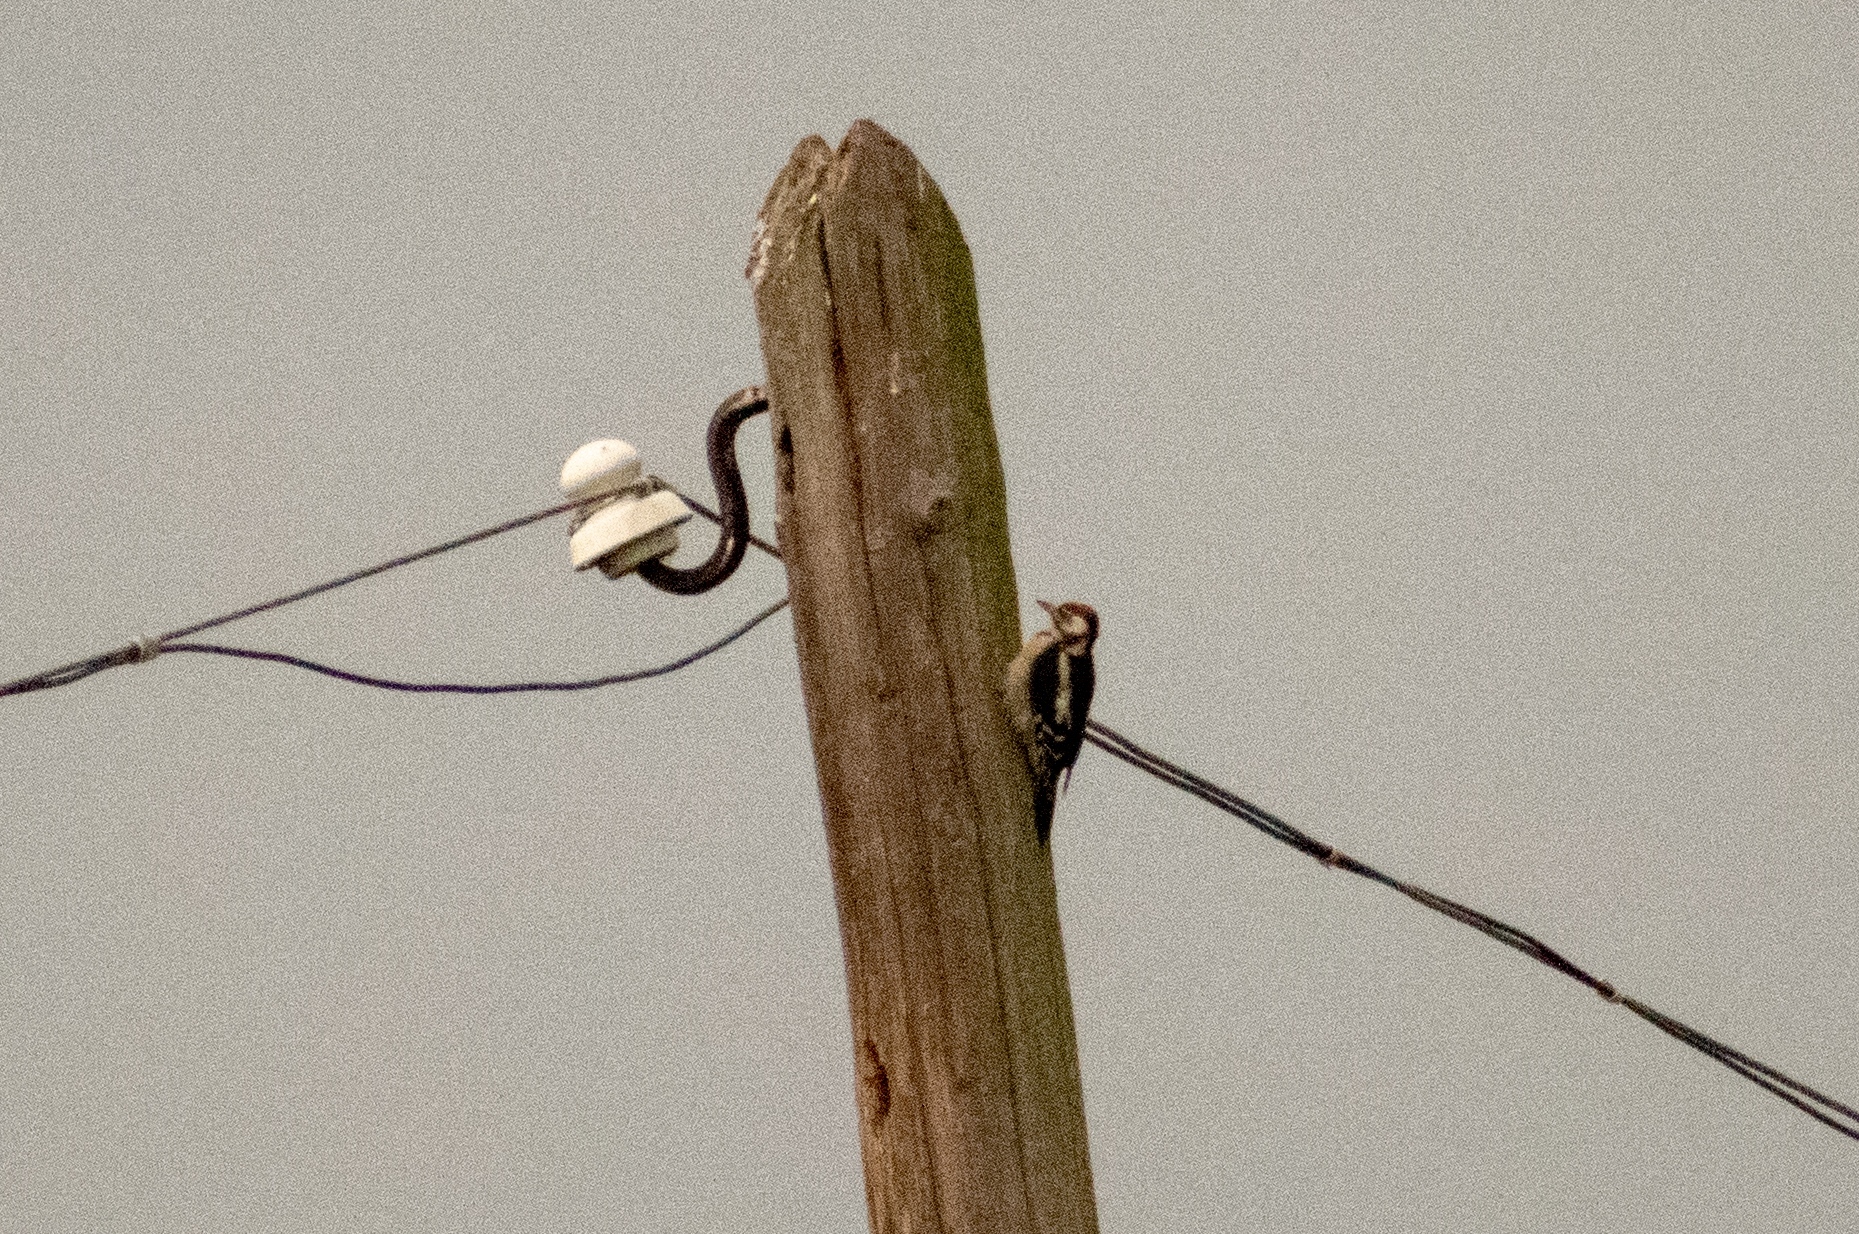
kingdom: Animalia
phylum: Chordata
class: Aves
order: Piciformes
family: Picidae
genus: Dendrocopos
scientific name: Dendrocopos major
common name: Great spotted woodpecker
